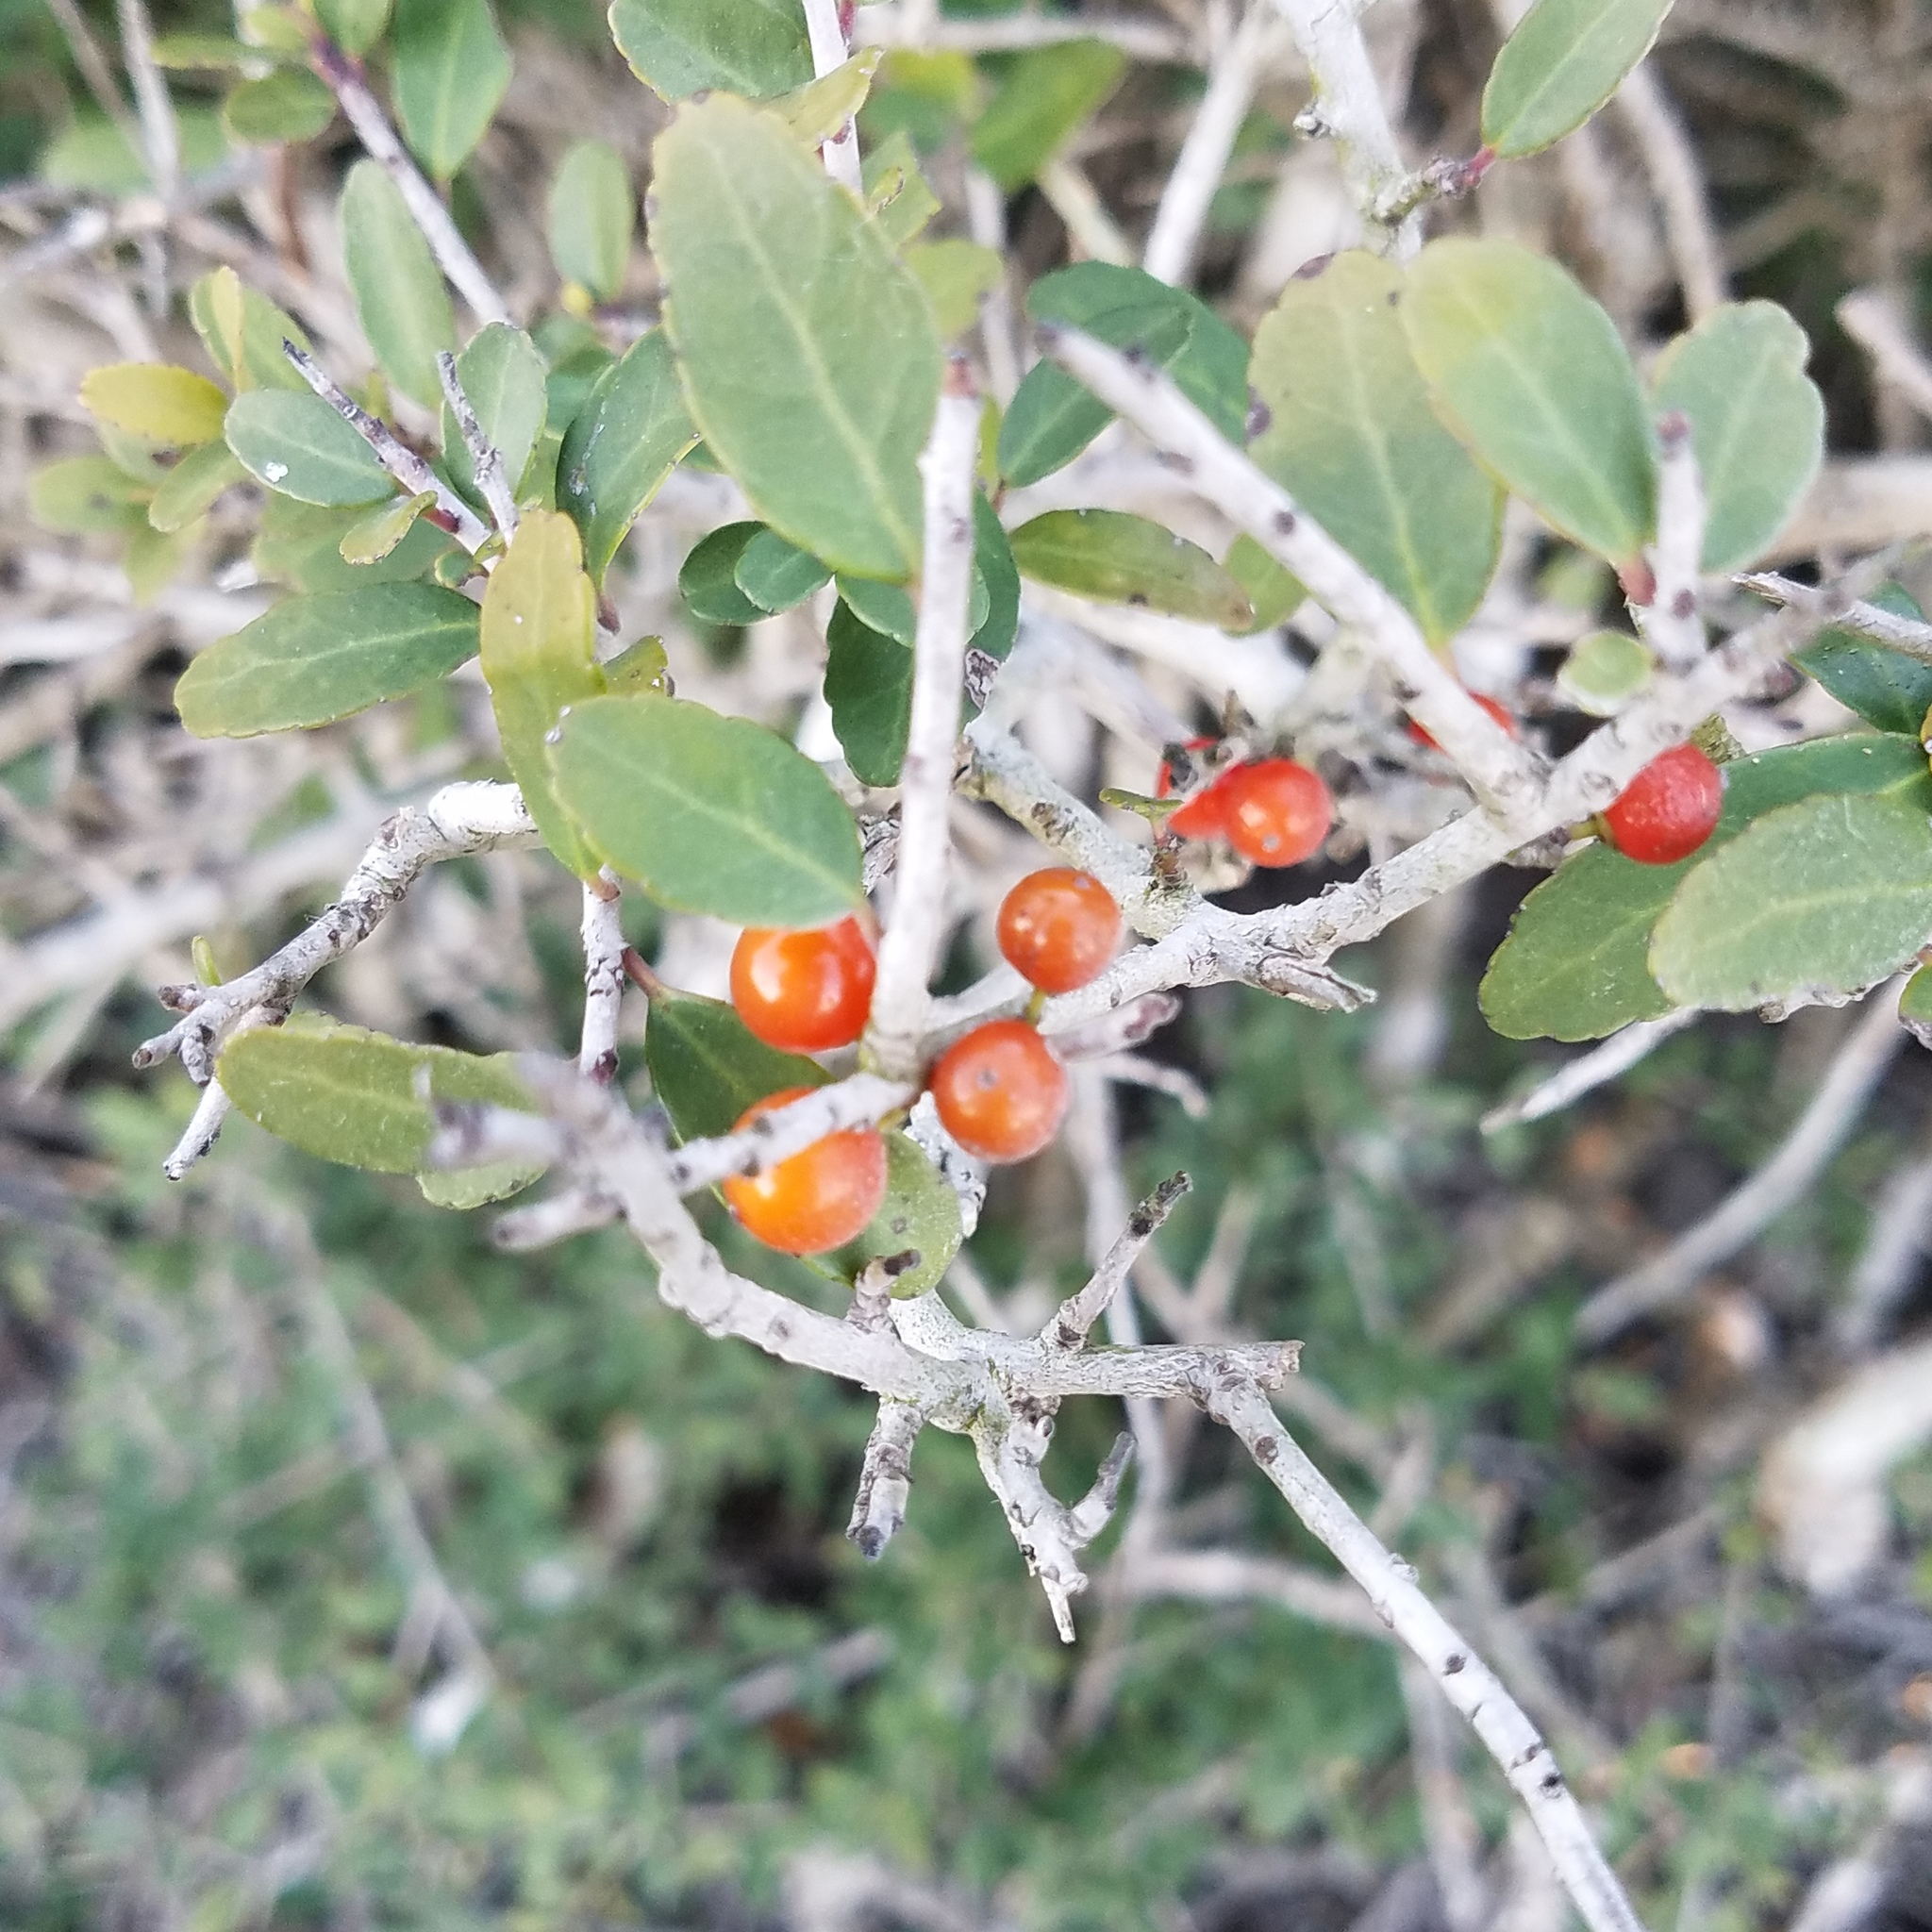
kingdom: Plantae
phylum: Tracheophyta
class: Magnoliopsida
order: Aquifoliales
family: Aquifoliaceae
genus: Ilex
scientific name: Ilex vomitoria
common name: Yaupon holly
